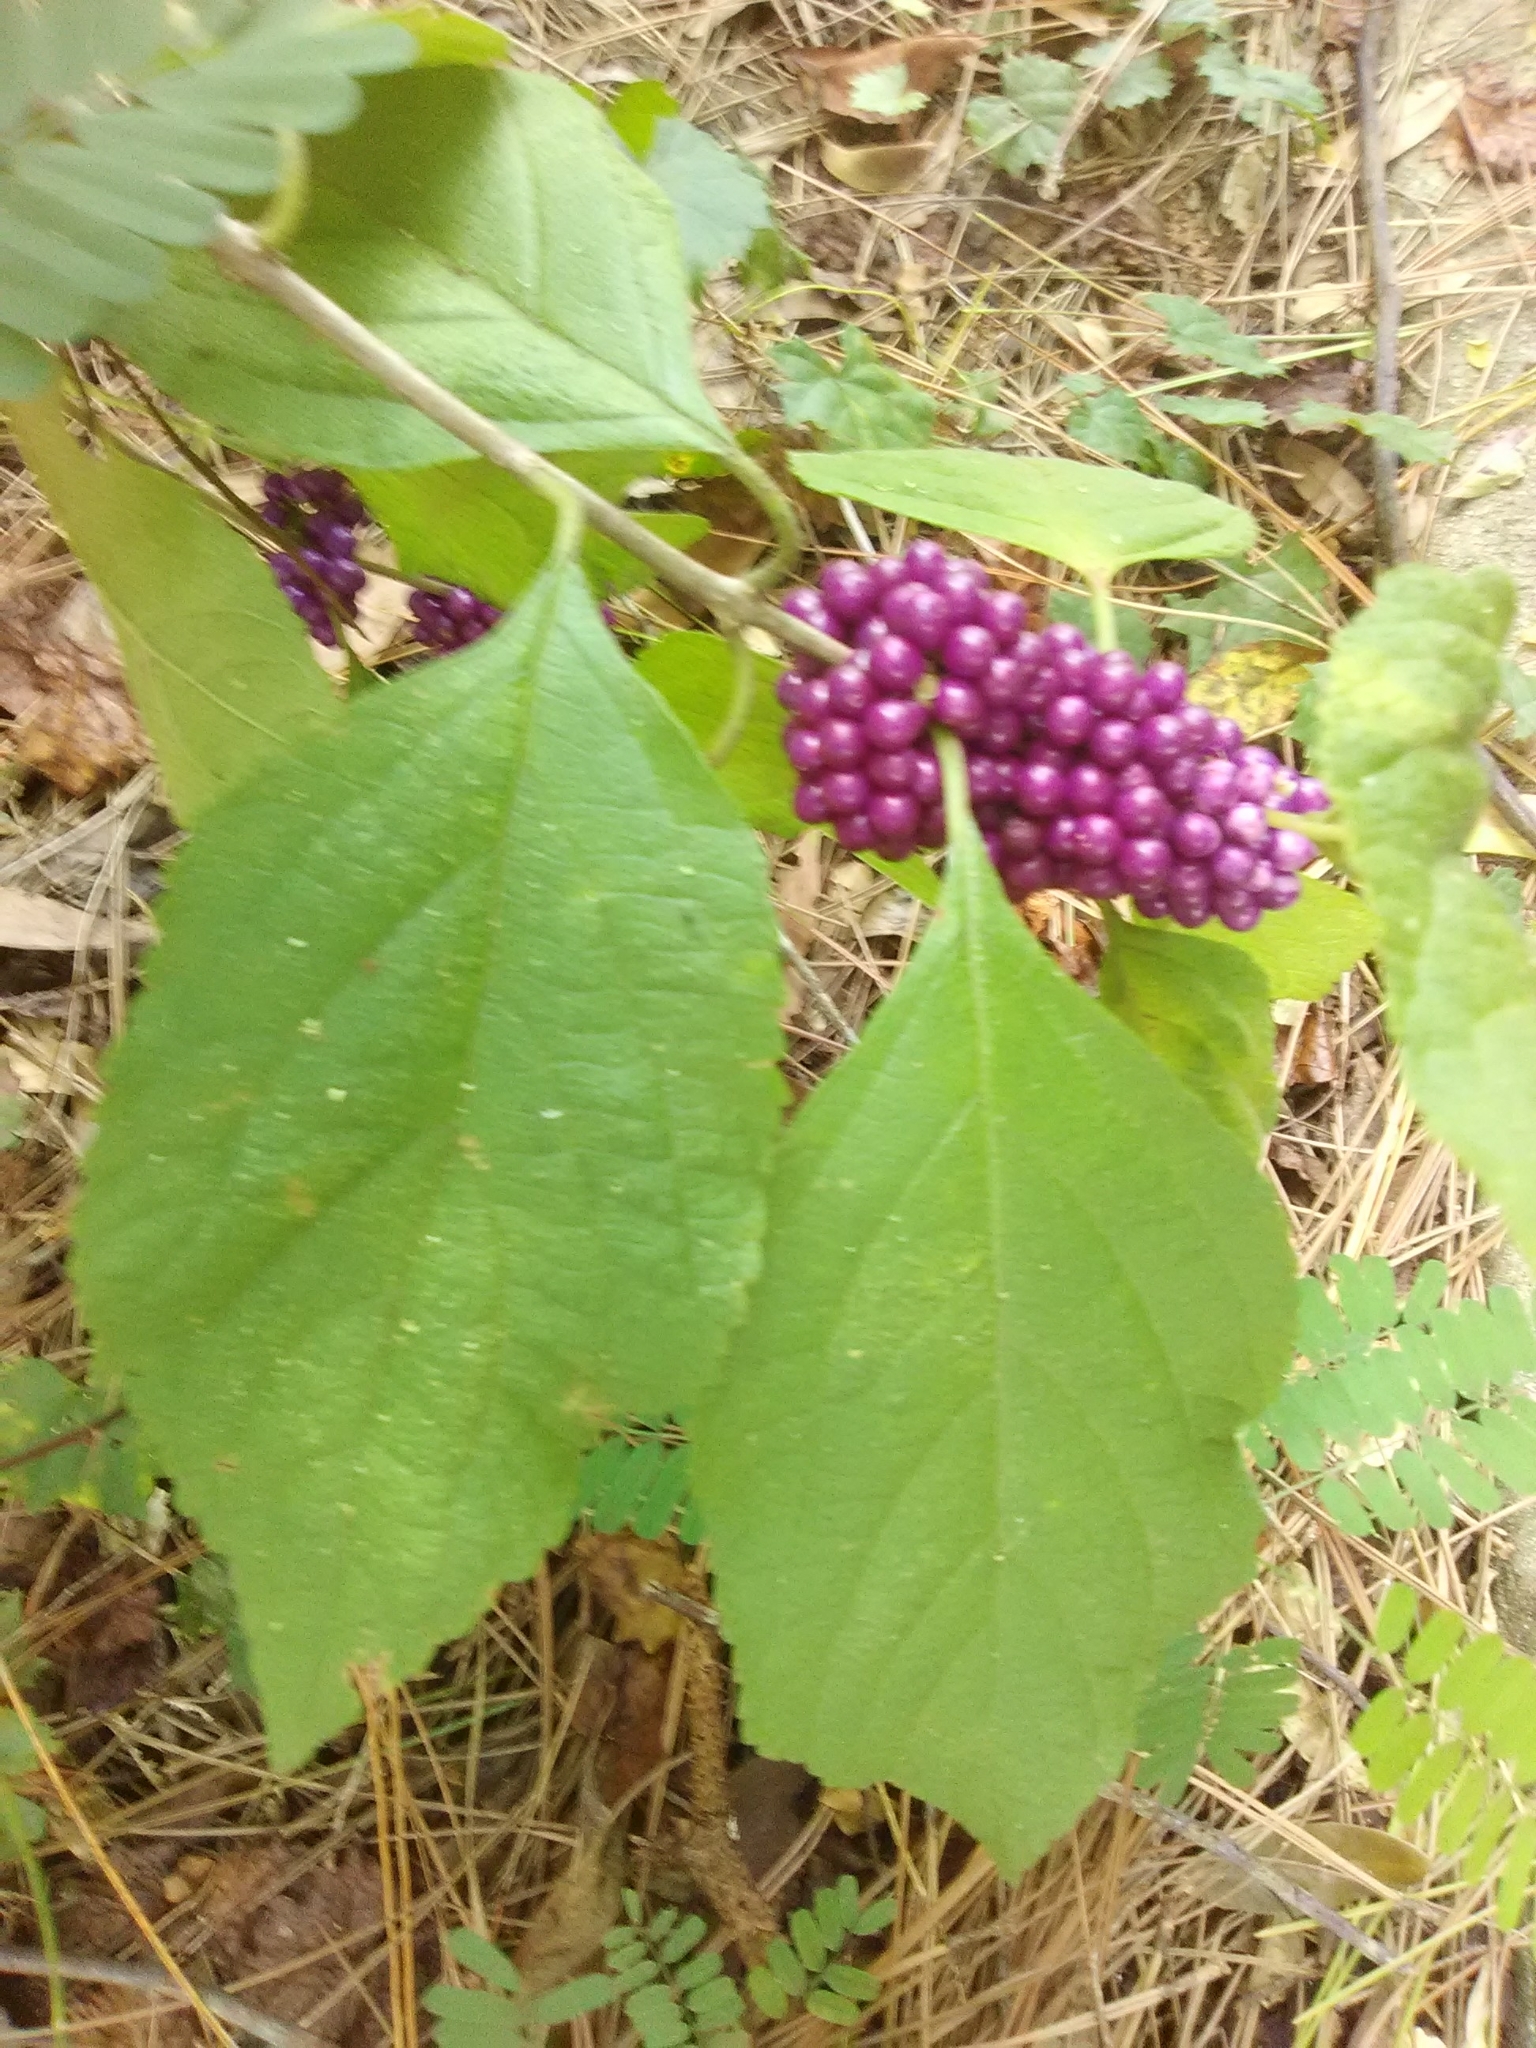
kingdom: Plantae
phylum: Tracheophyta
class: Magnoliopsida
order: Lamiales
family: Lamiaceae
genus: Callicarpa
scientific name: Callicarpa americana
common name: American beautyberry
